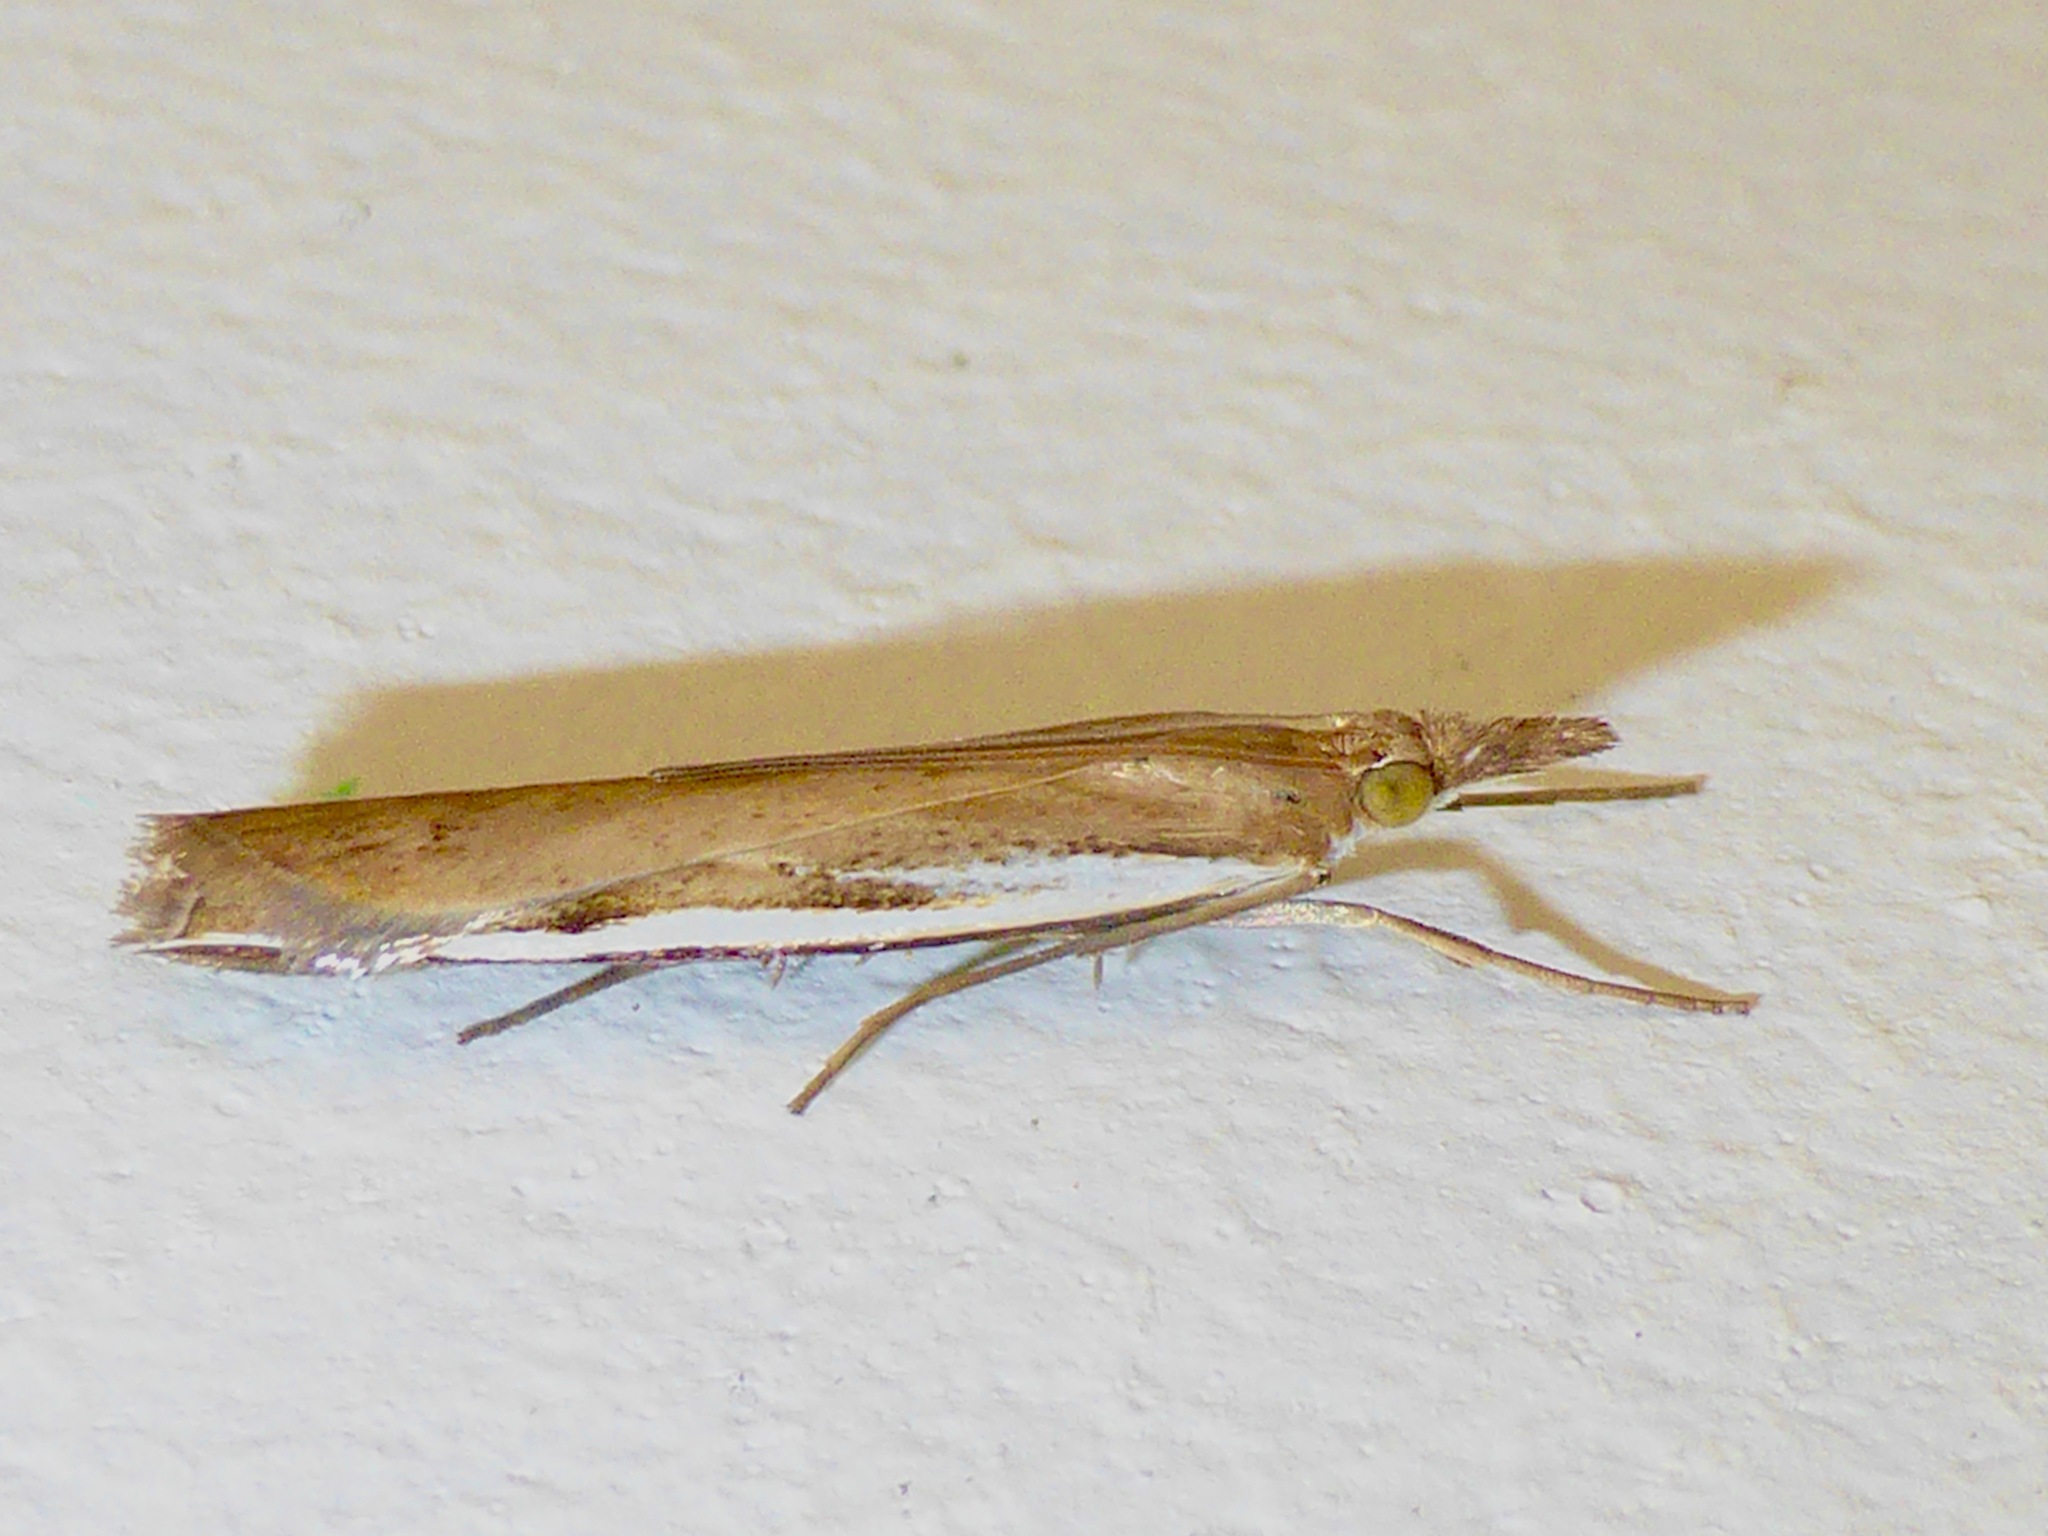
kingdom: Animalia
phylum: Arthropoda
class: Insecta
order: Lepidoptera
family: Crambidae
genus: Orocrambus
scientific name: Orocrambus flexuosellus
